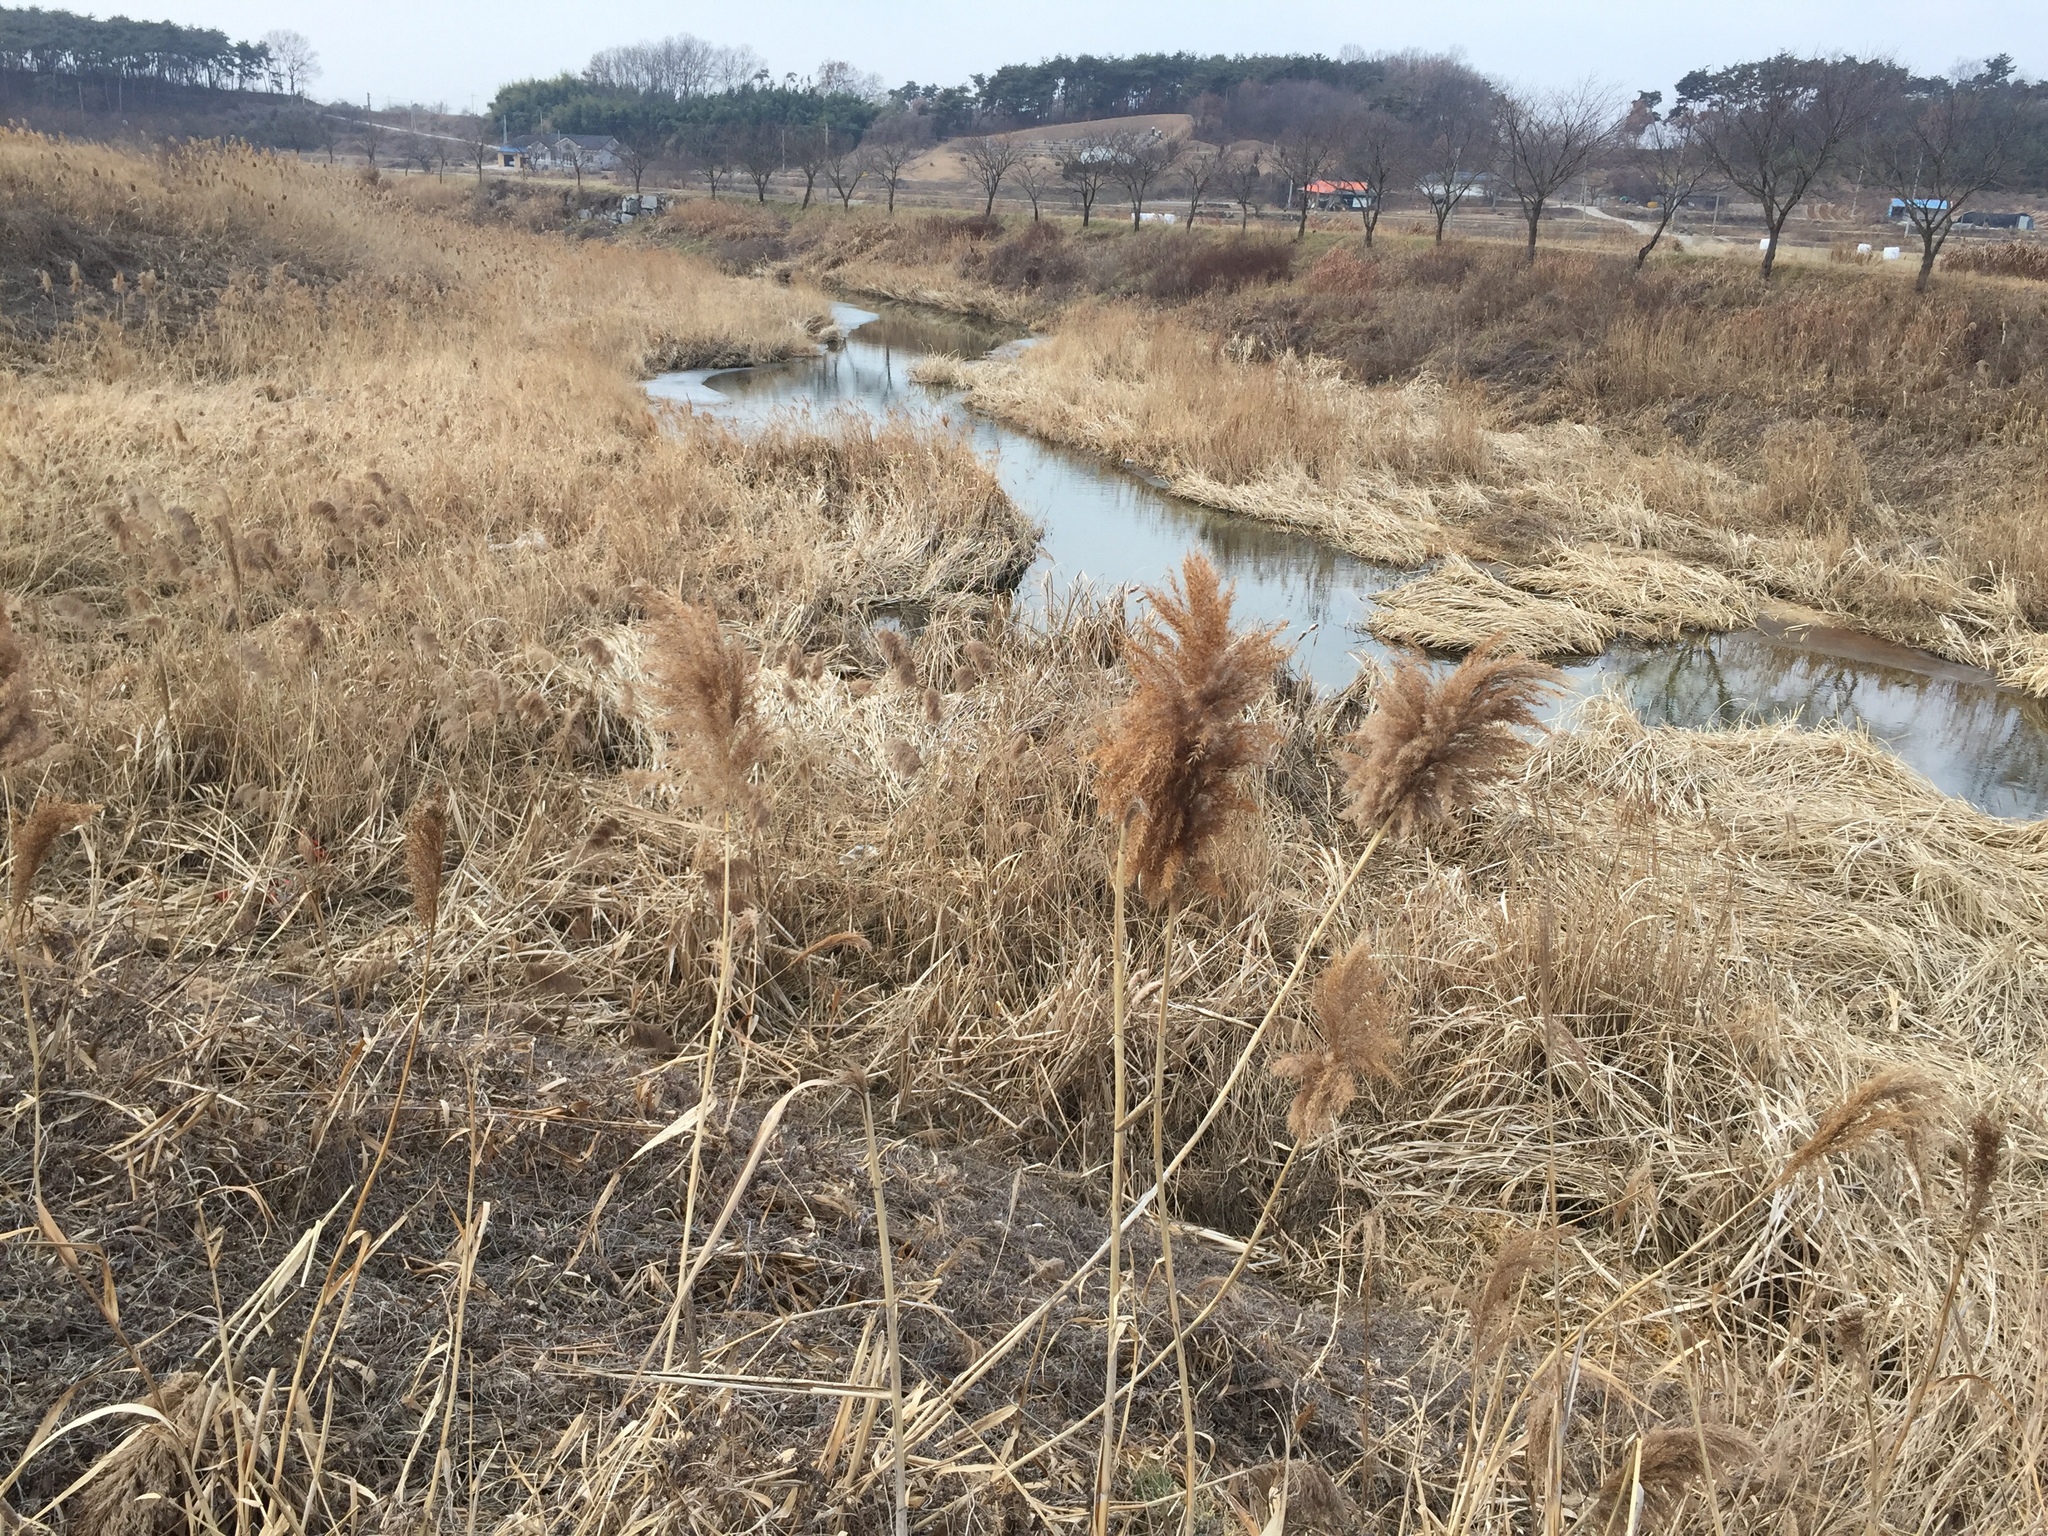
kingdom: Plantae
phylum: Tracheophyta
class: Liliopsida
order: Poales
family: Poaceae
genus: Phragmites
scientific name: Phragmites australis
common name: Common reed
